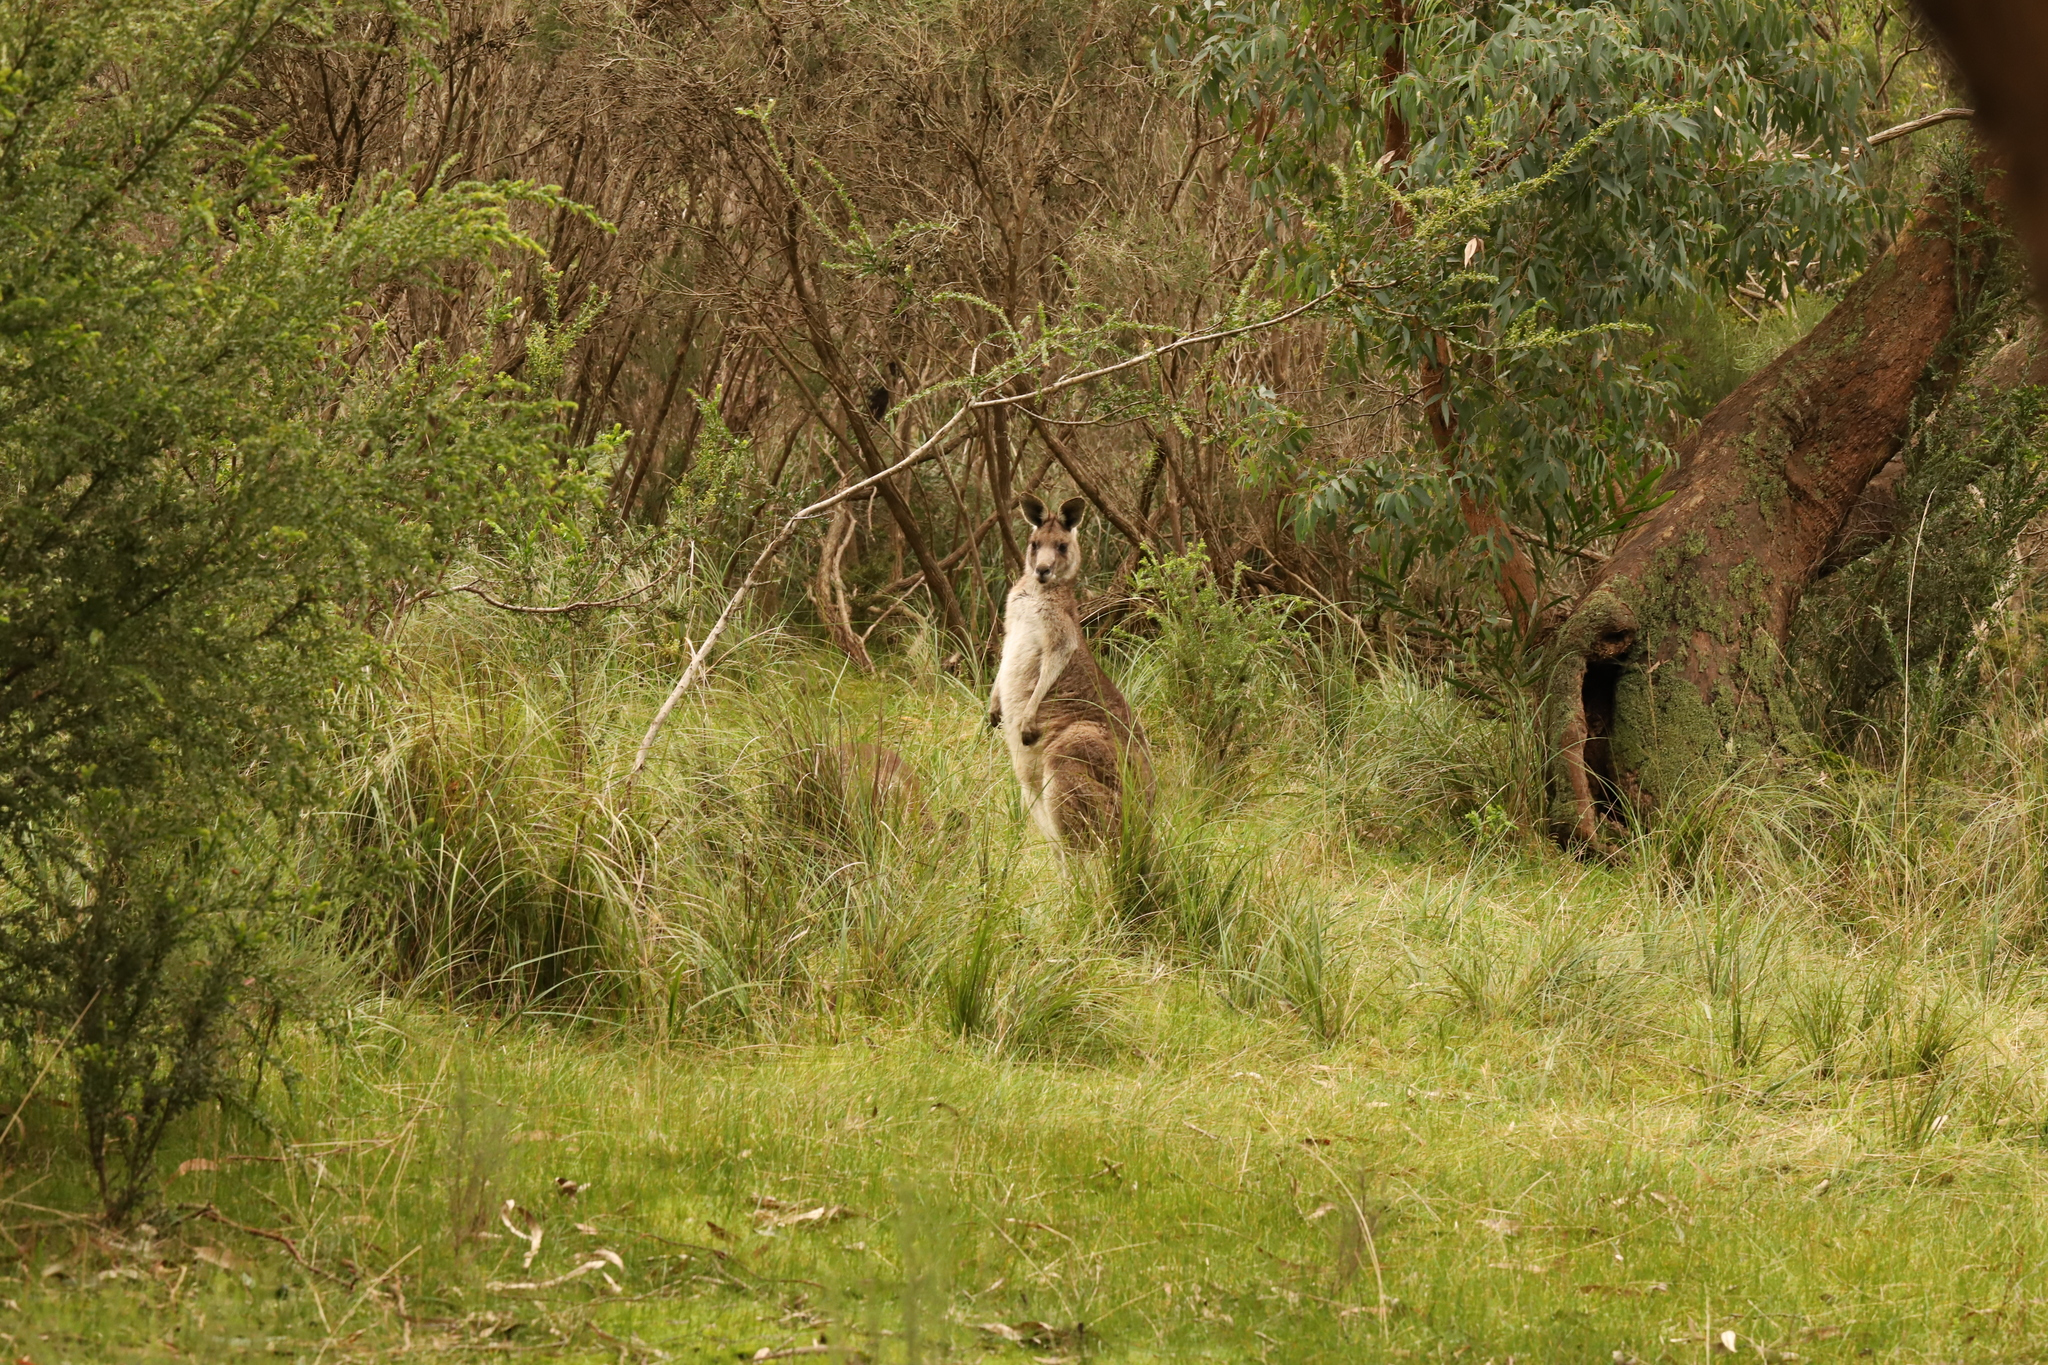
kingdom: Animalia
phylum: Chordata
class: Mammalia
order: Diprotodontia
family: Macropodidae
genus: Macropus
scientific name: Macropus giganteus
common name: Eastern grey kangaroo
